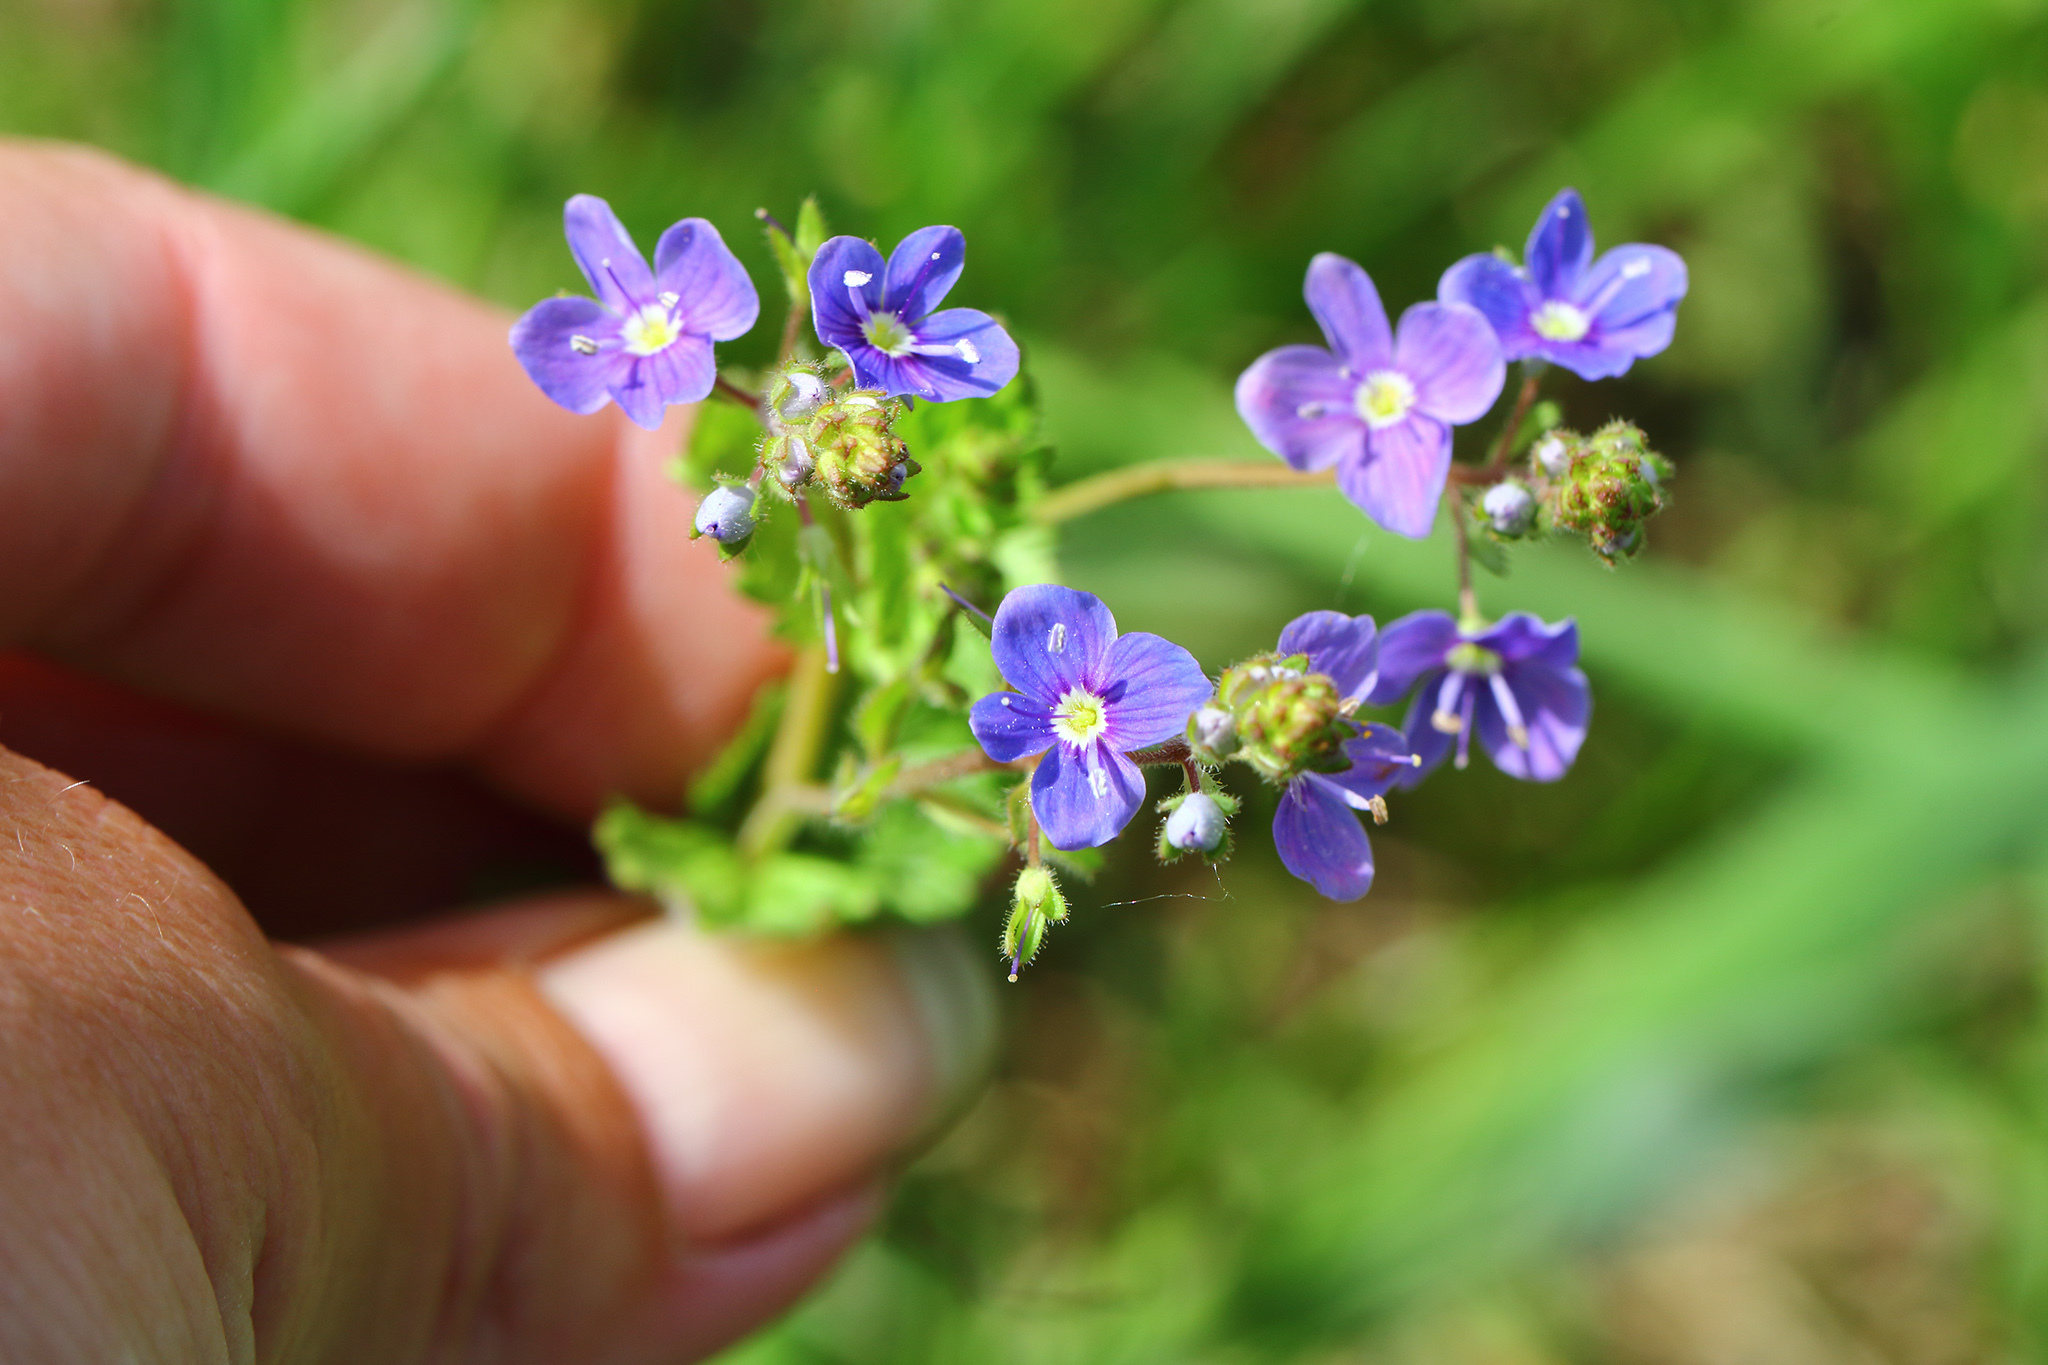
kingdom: Plantae
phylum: Tracheophyta
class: Magnoliopsida
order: Lamiales
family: Plantaginaceae
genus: Veronica
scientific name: Veronica chamaedrys
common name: Germander speedwell
